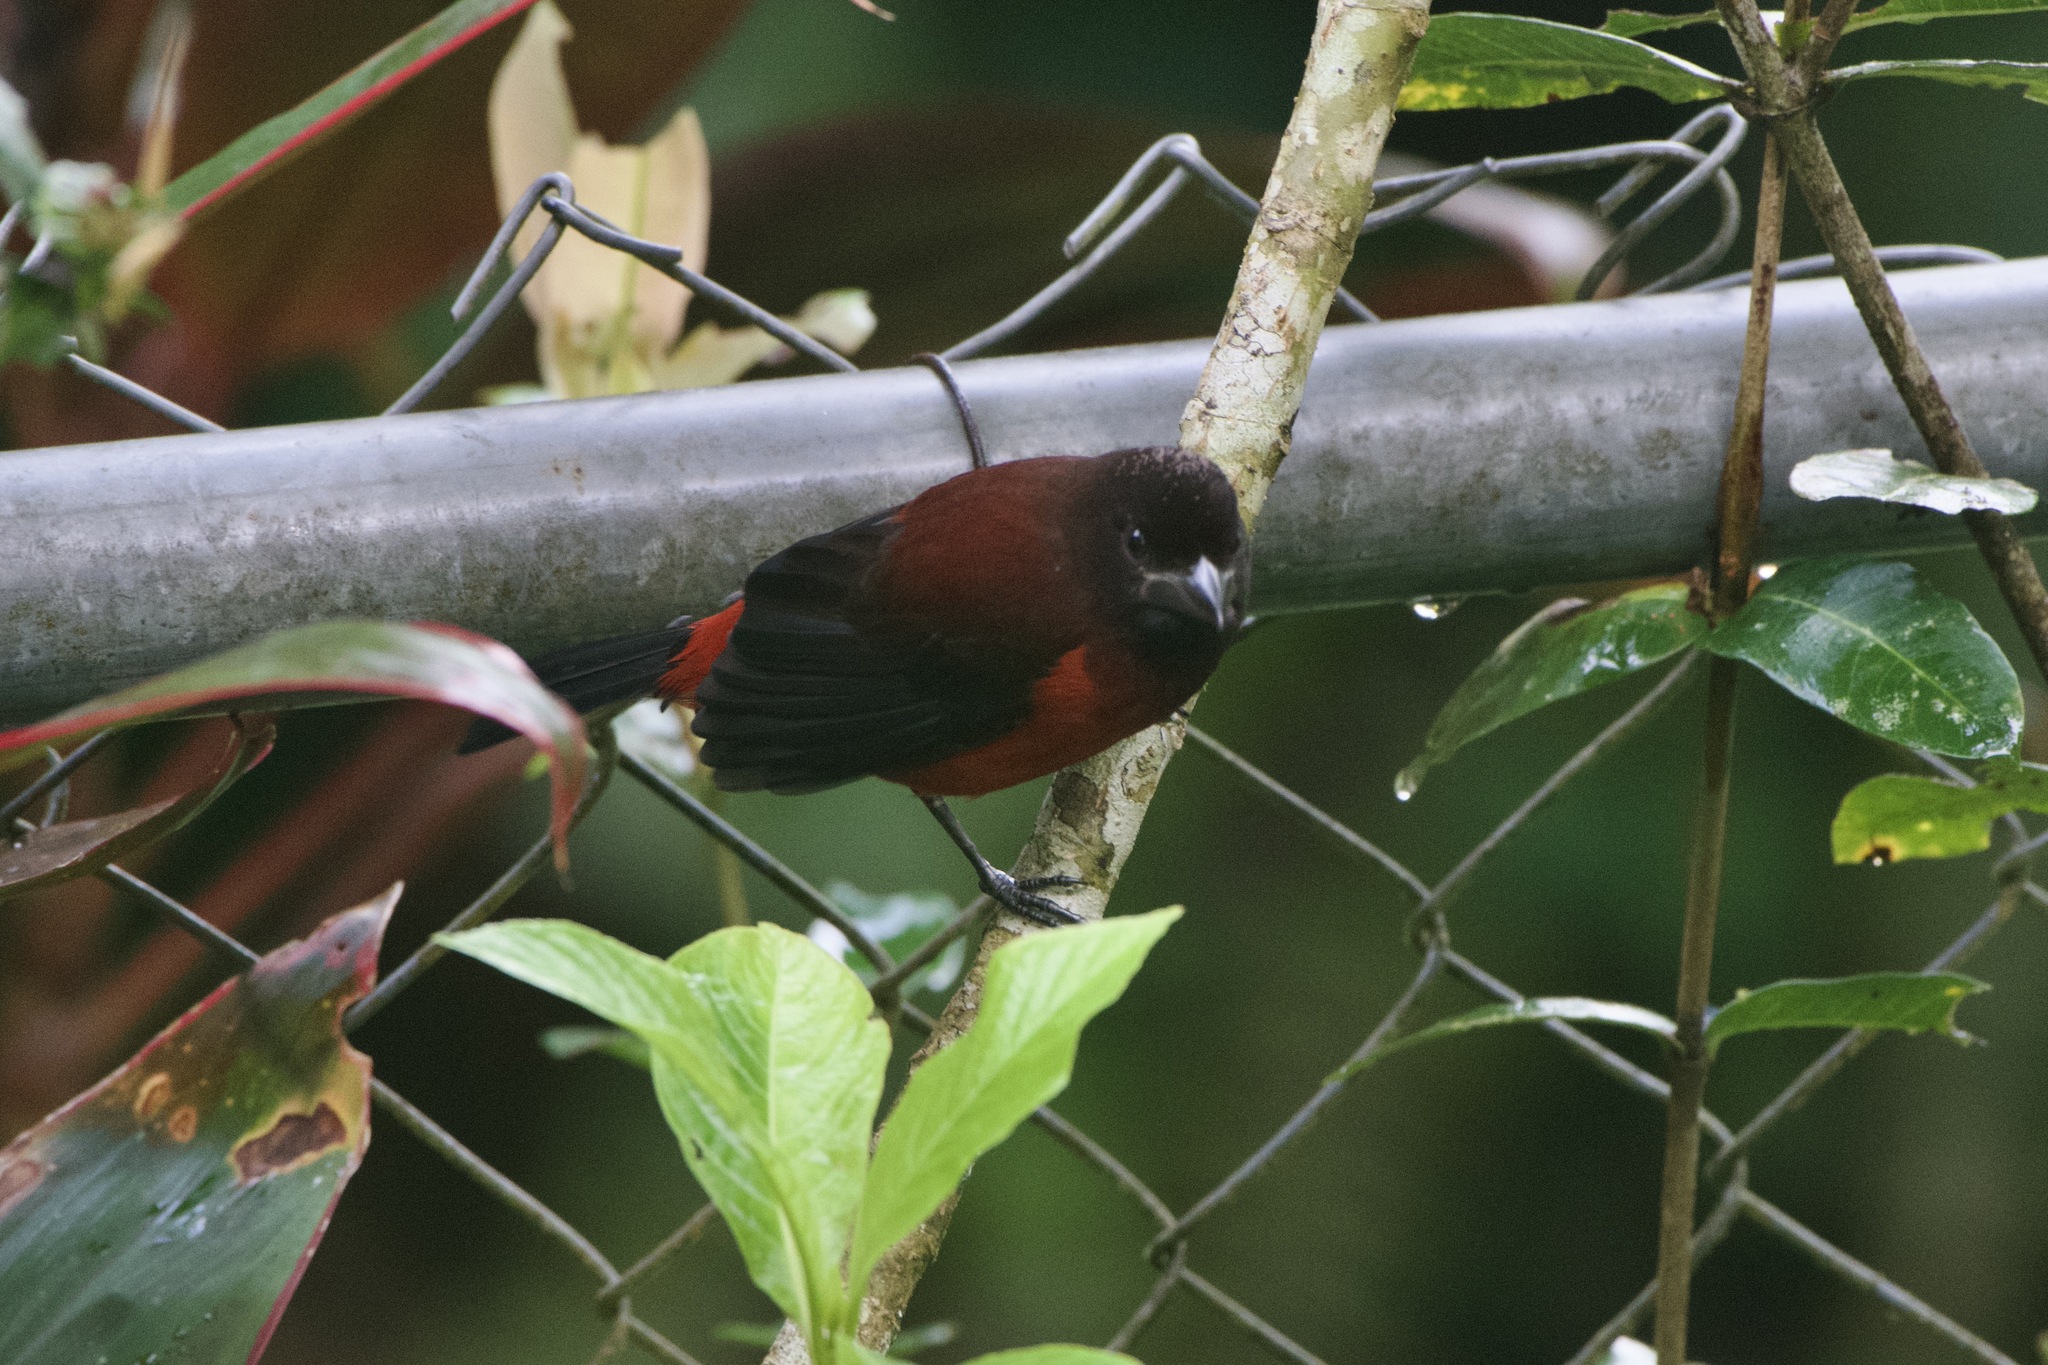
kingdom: Animalia
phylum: Chordata
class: Aves
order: Passeriformes
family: Thraupidae
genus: Ramphocelus
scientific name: Ramphocelus dimidiatus
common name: Crimson-backed tanager
